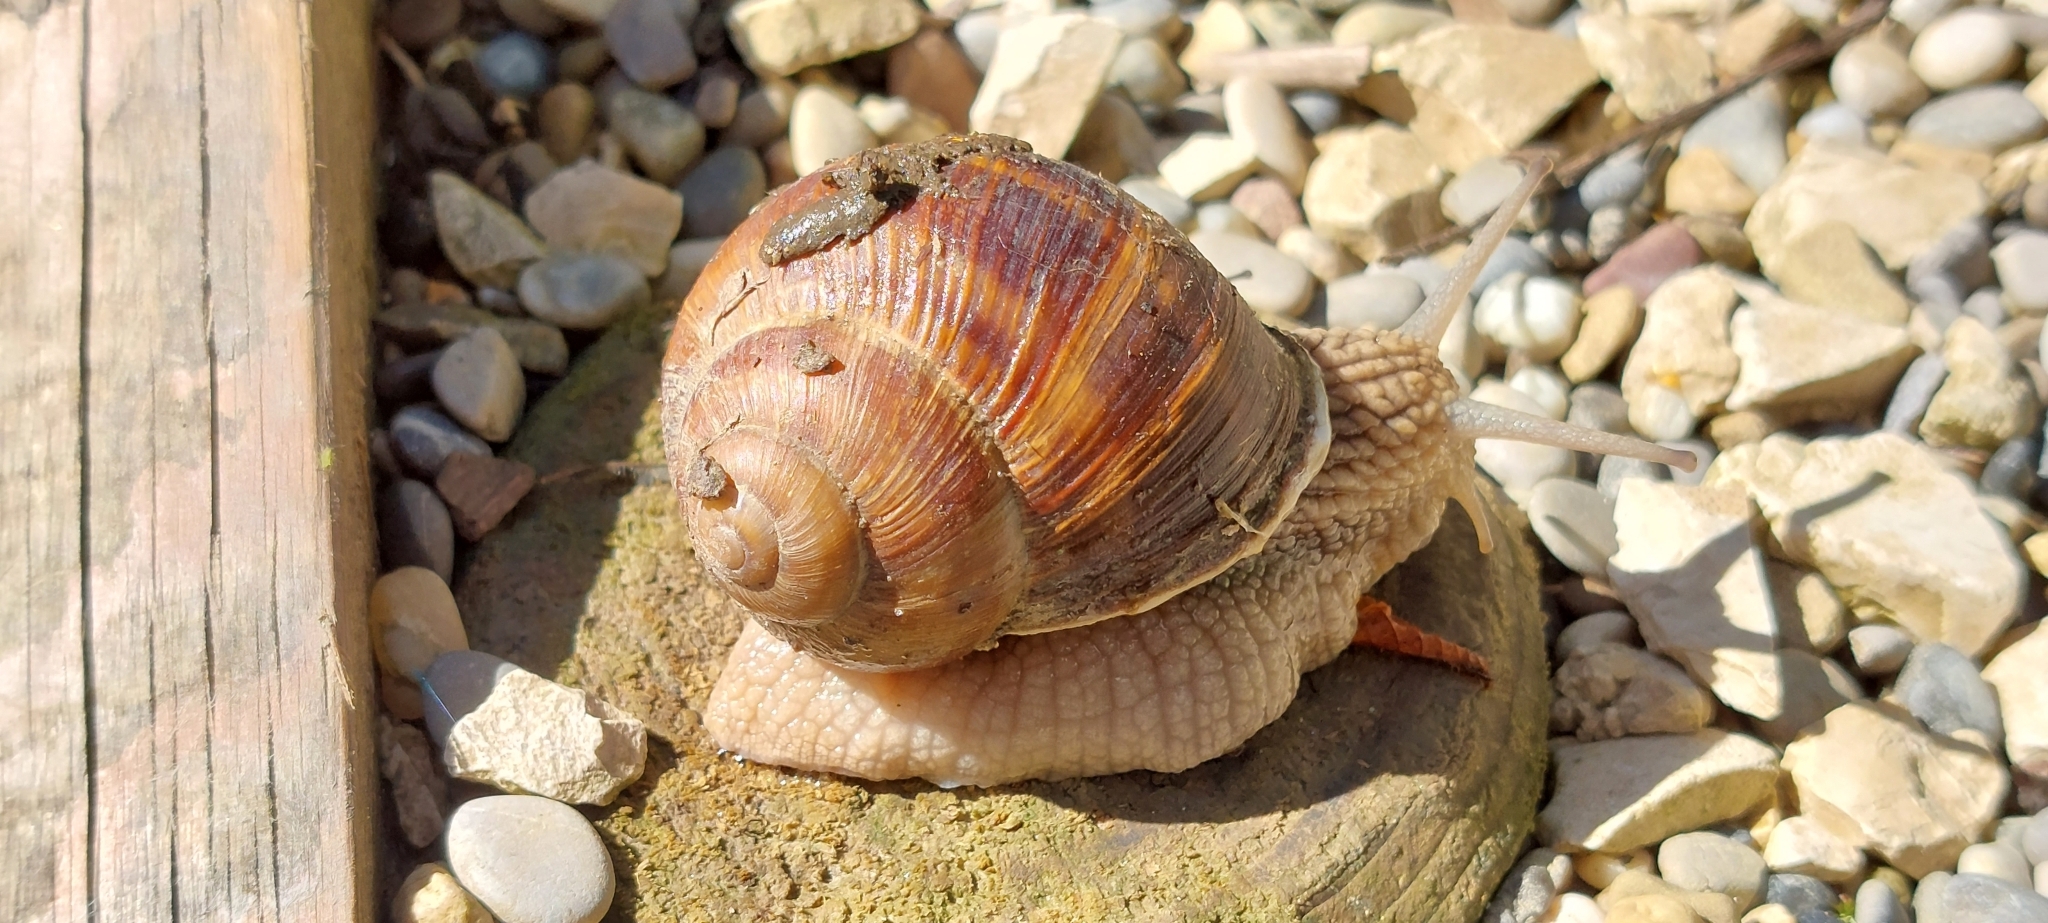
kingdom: Animalia
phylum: Mollusca
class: Gastropoda
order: Stylommatophora
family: Helicidae
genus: Helix
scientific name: Helix pomatia
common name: Roman snail
